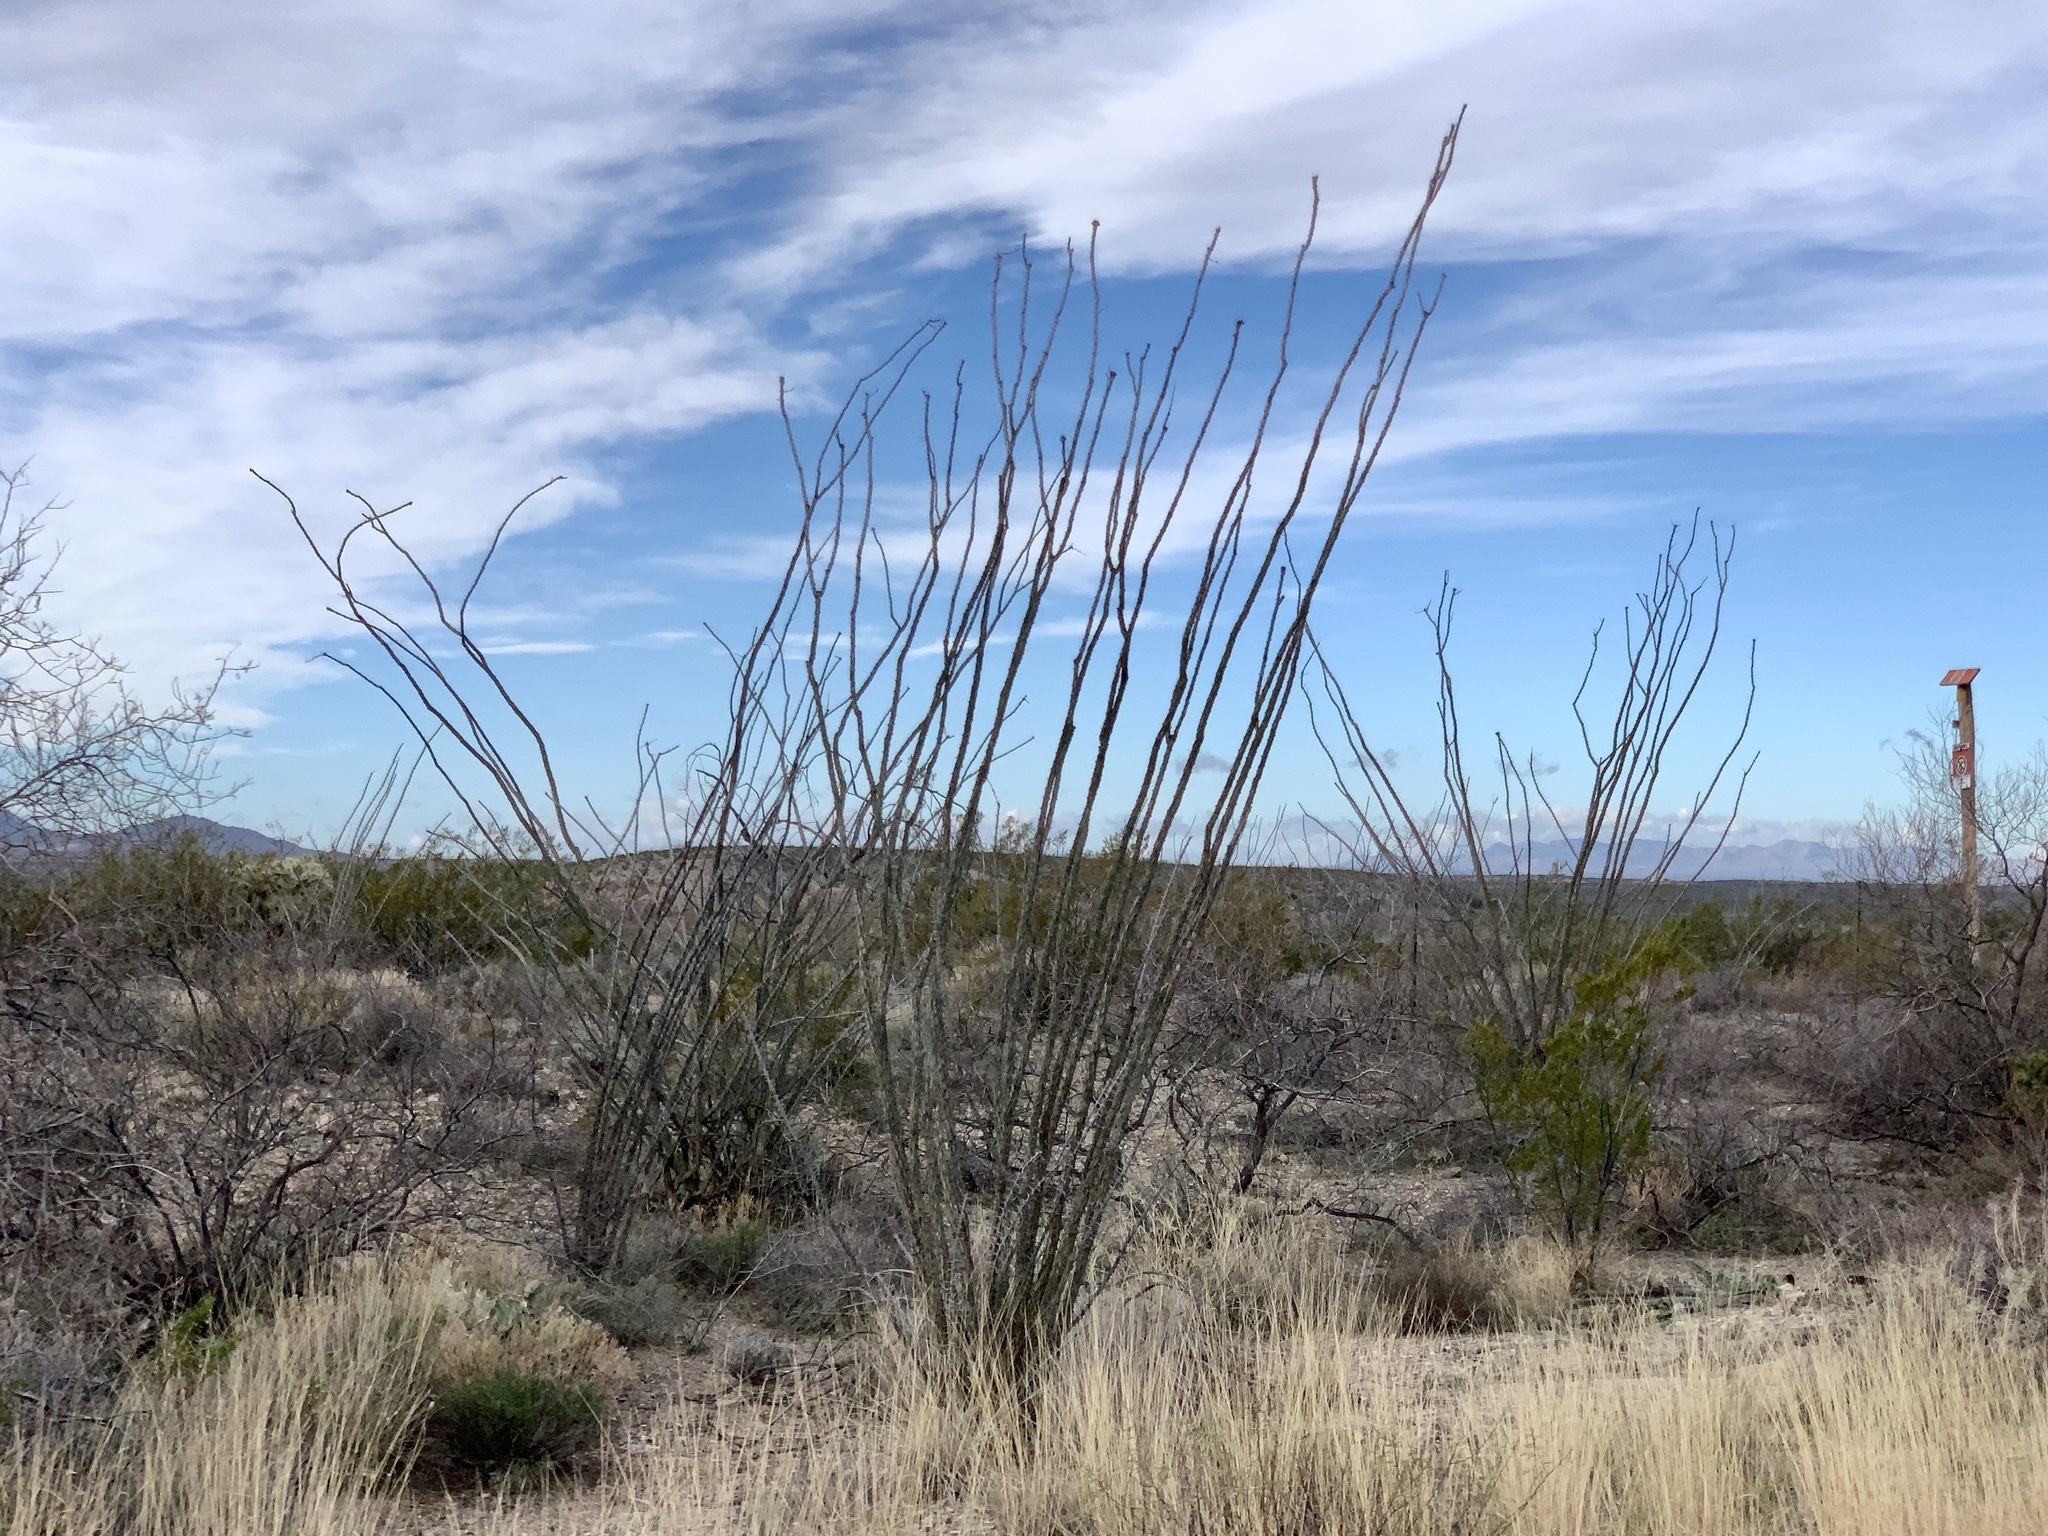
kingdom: Plantae
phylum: Tracheophyta
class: Magnoliopsida
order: Ericales
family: Fouquieriaceae
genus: Fouquieria
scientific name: Fouquieria splendens
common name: Vine-cactus
